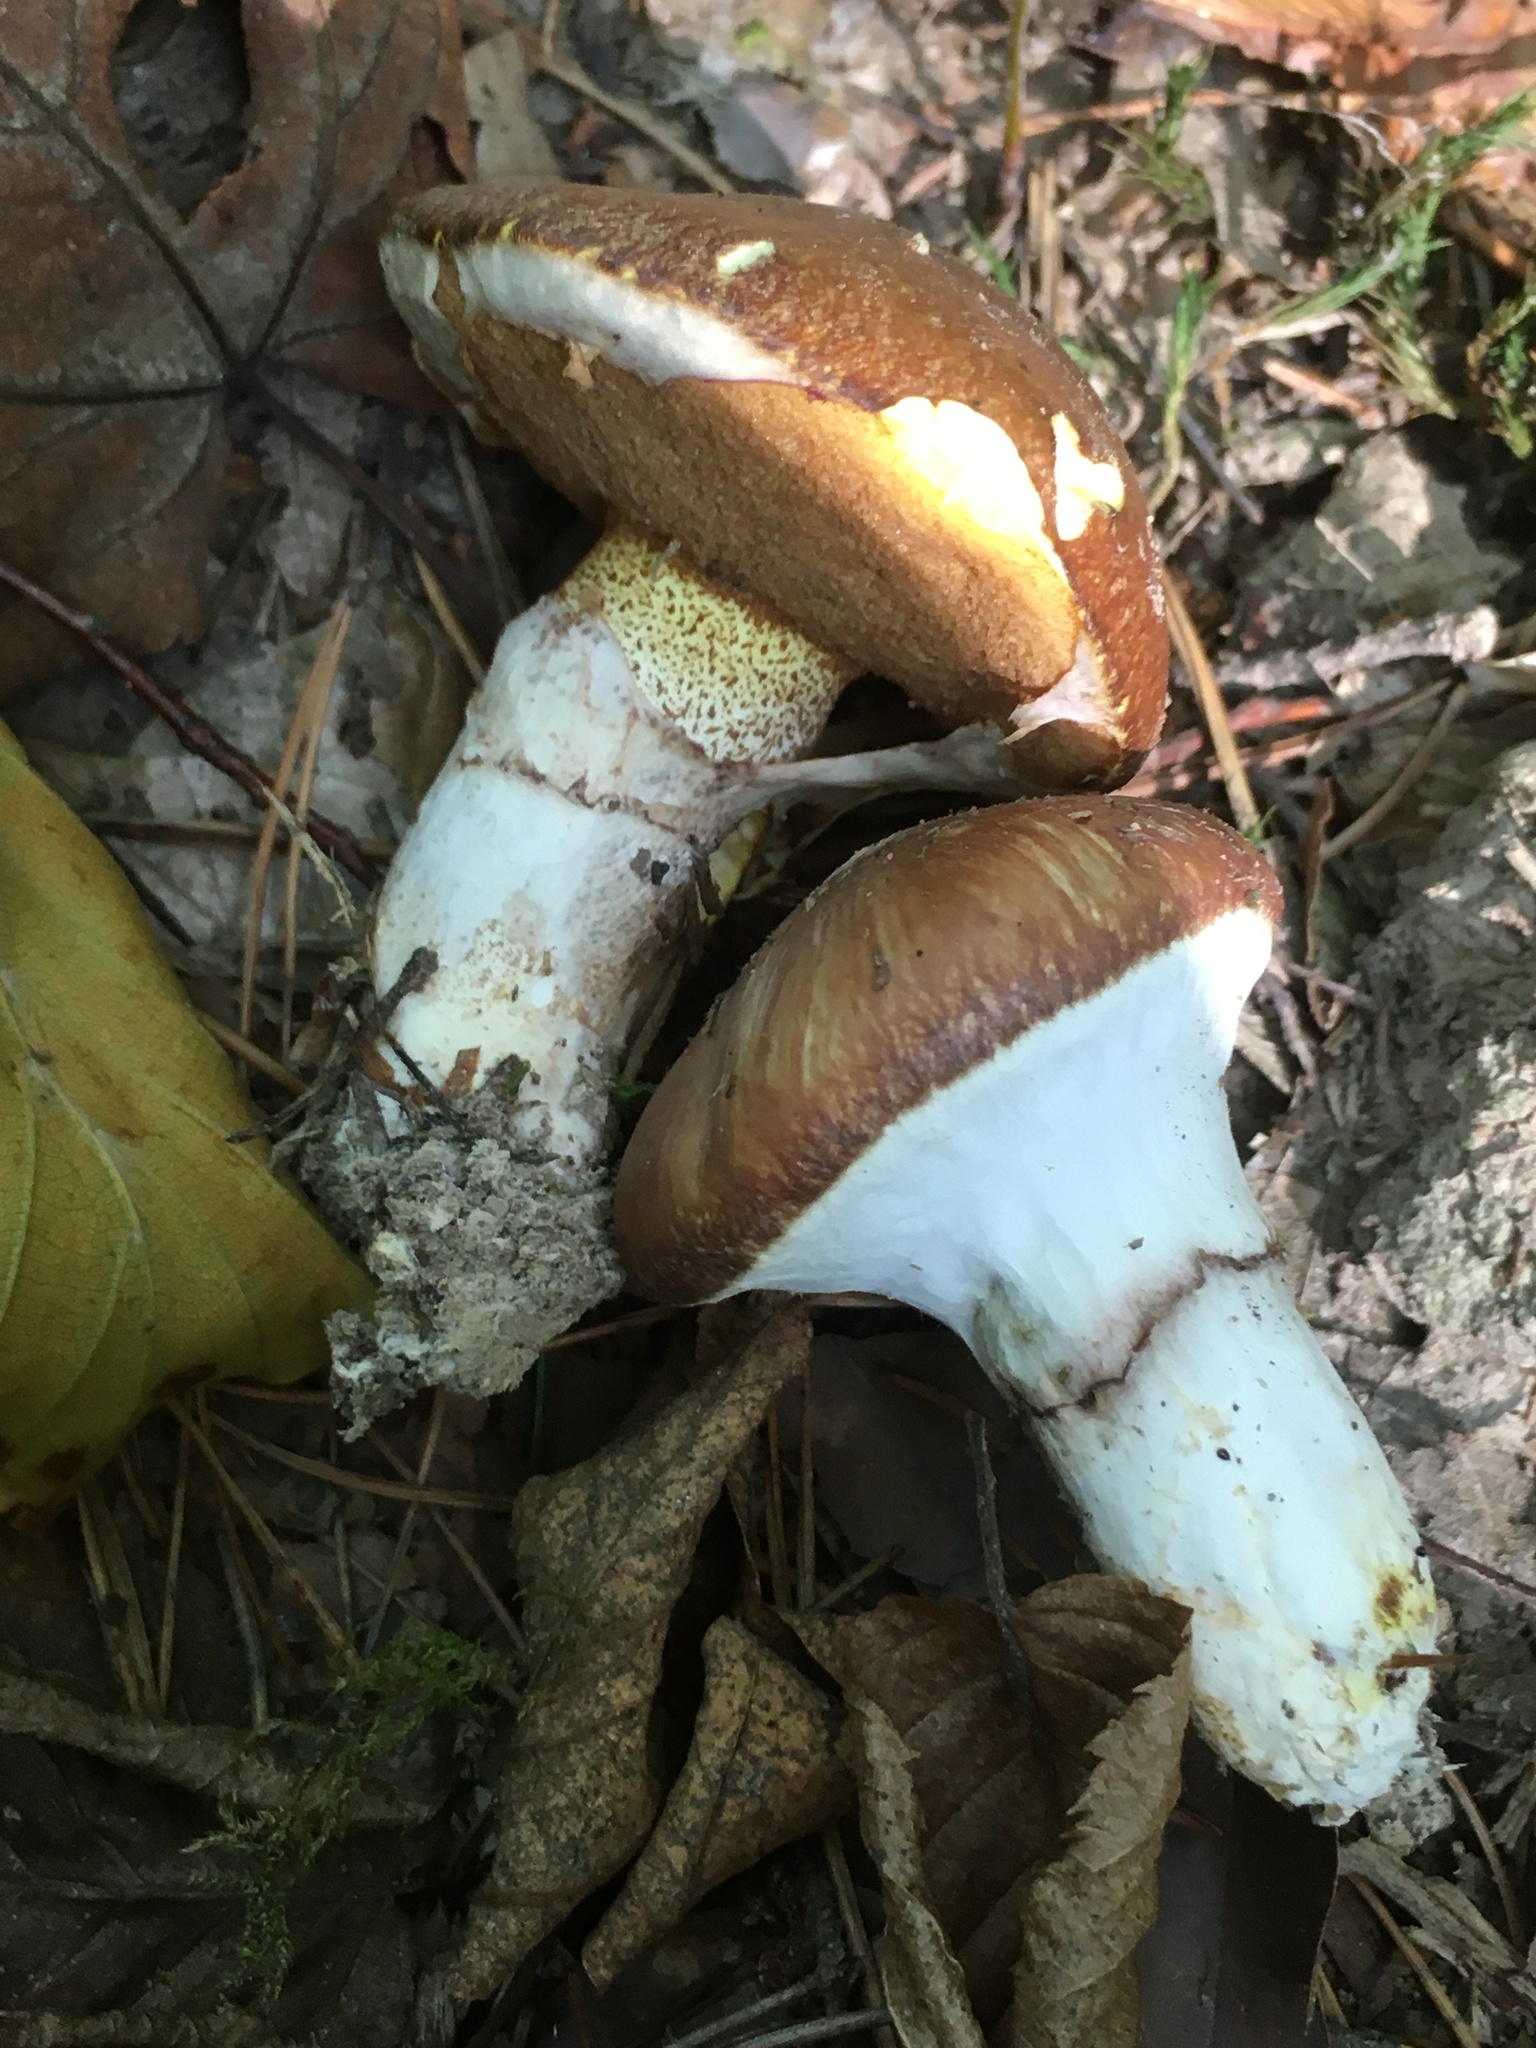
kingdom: Fungi
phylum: Basidiomycota
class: Agaricomycetes
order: Boletales
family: Suillaceae
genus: Suillus
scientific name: Suillus luteus
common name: Slippery jack
